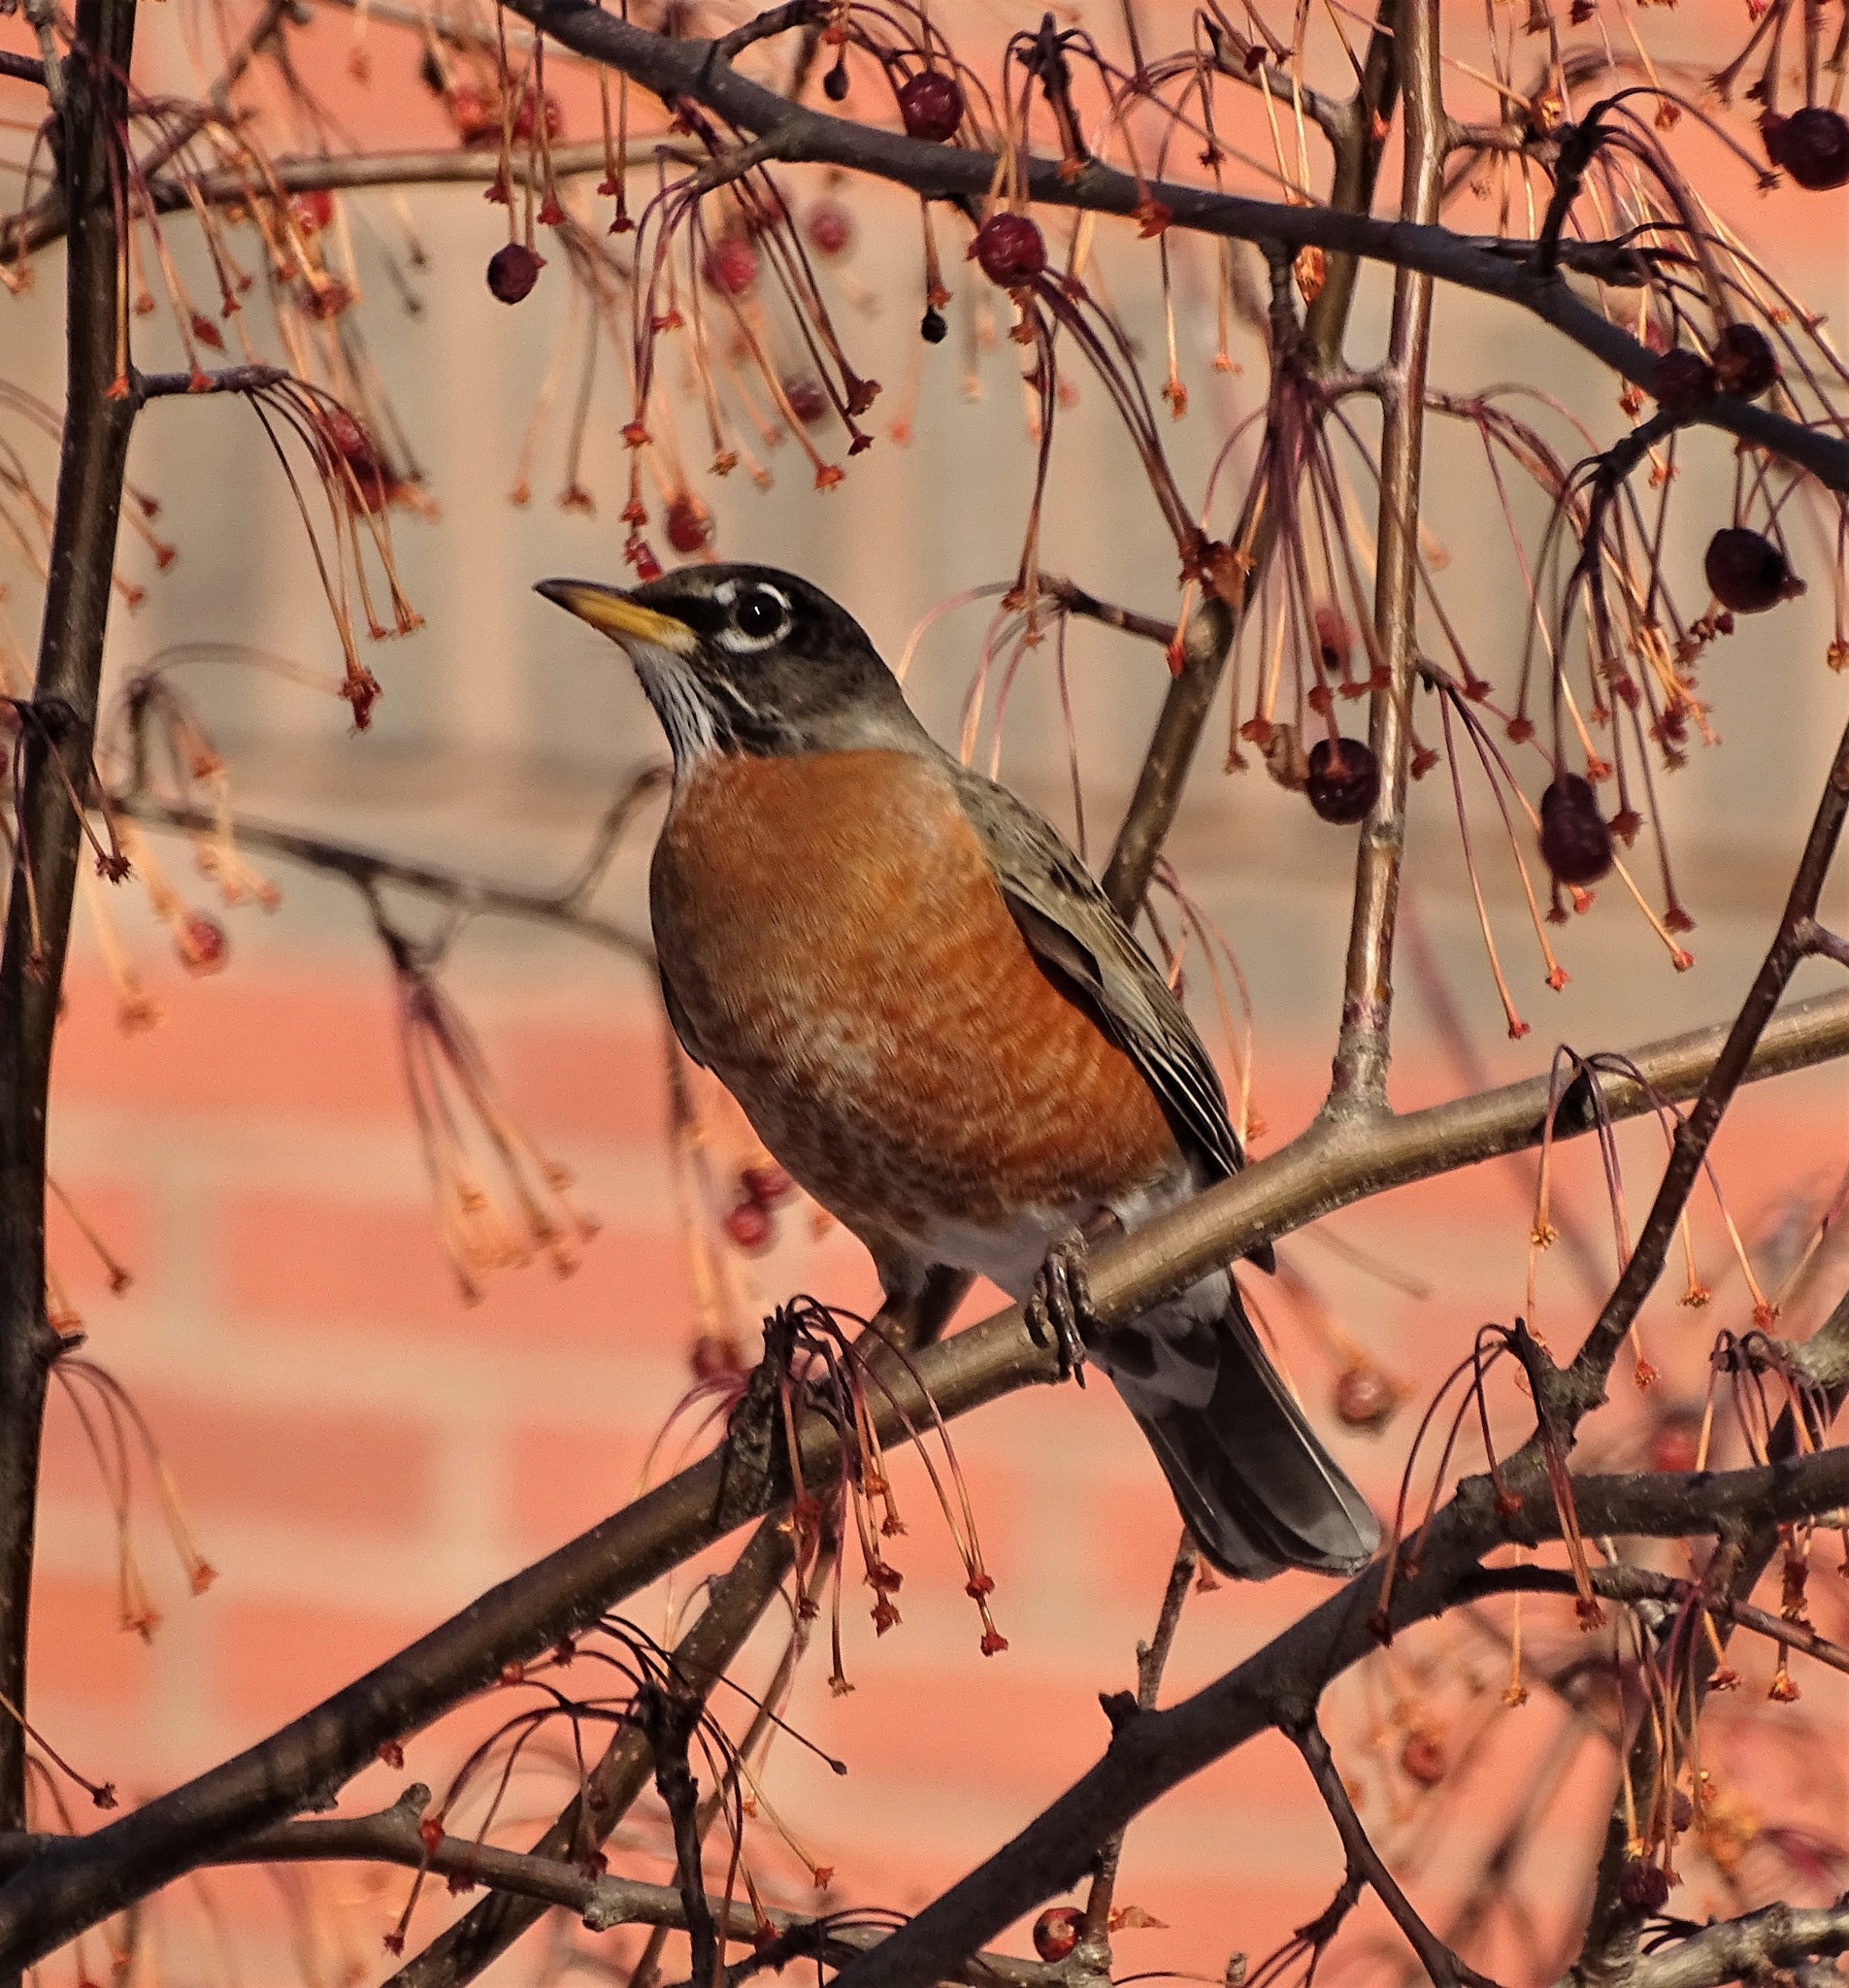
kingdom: Animalia
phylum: Chordata
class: Aves
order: Passeriformes
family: Turdidae
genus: Turdus
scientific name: Turdus migratorius
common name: American robin
